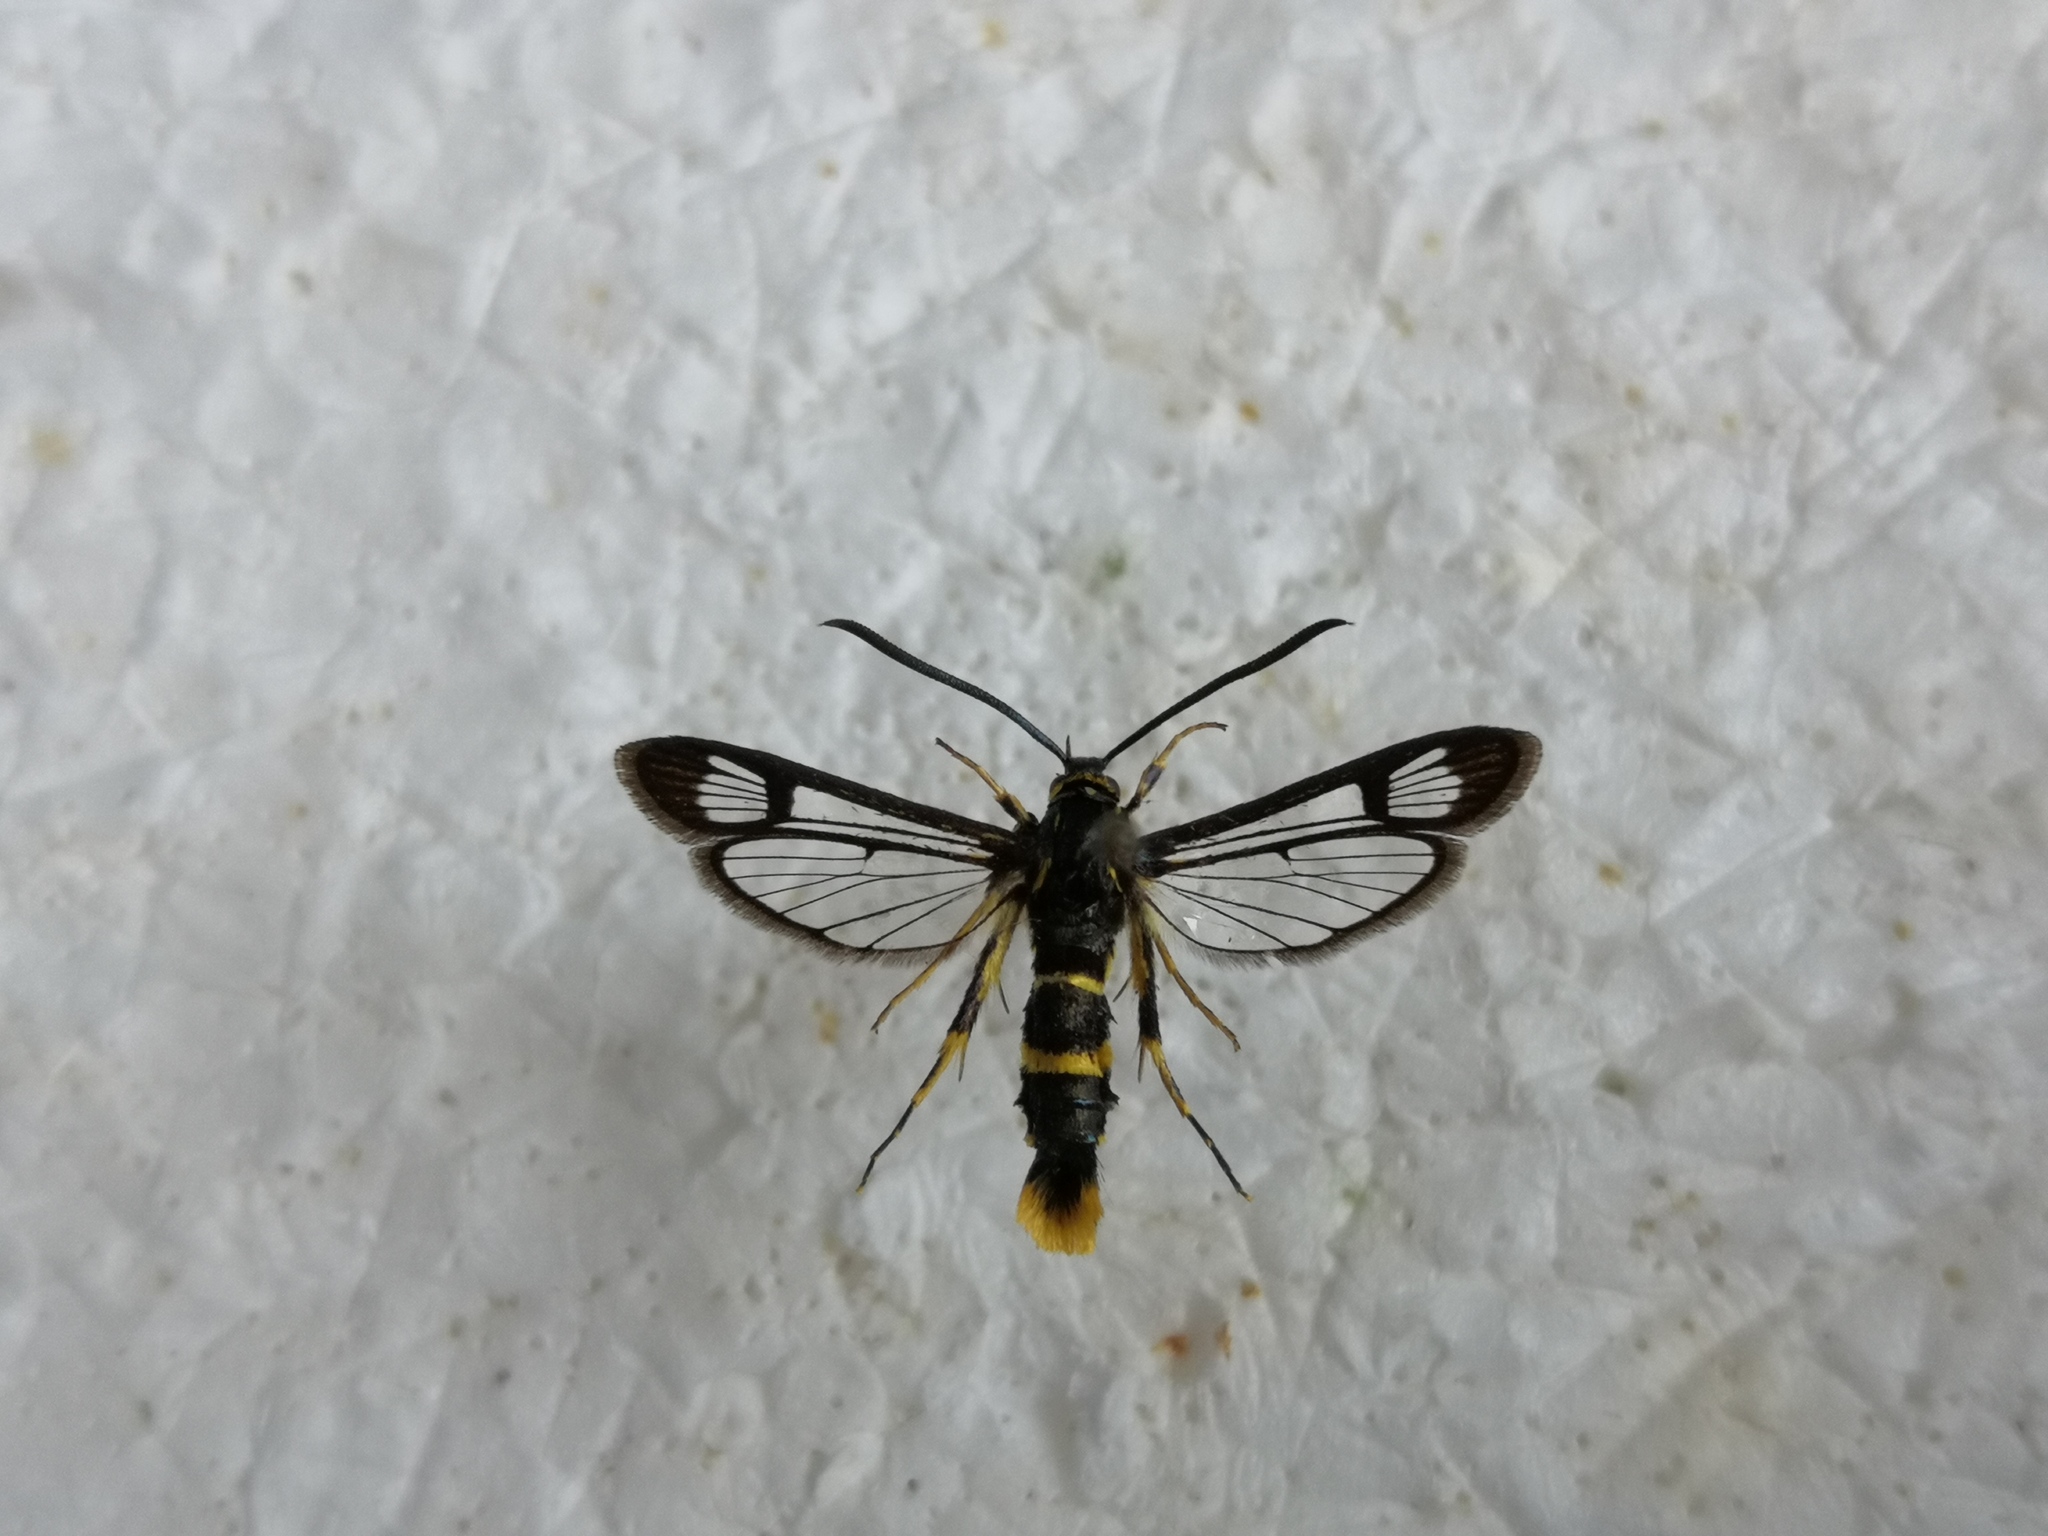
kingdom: Animalia
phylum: Arthropoda
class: Insecta
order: Lepidoptera
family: Sesiidae
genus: Synanthedon
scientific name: Synanthedon loranthi
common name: Mistletoe clearwing
